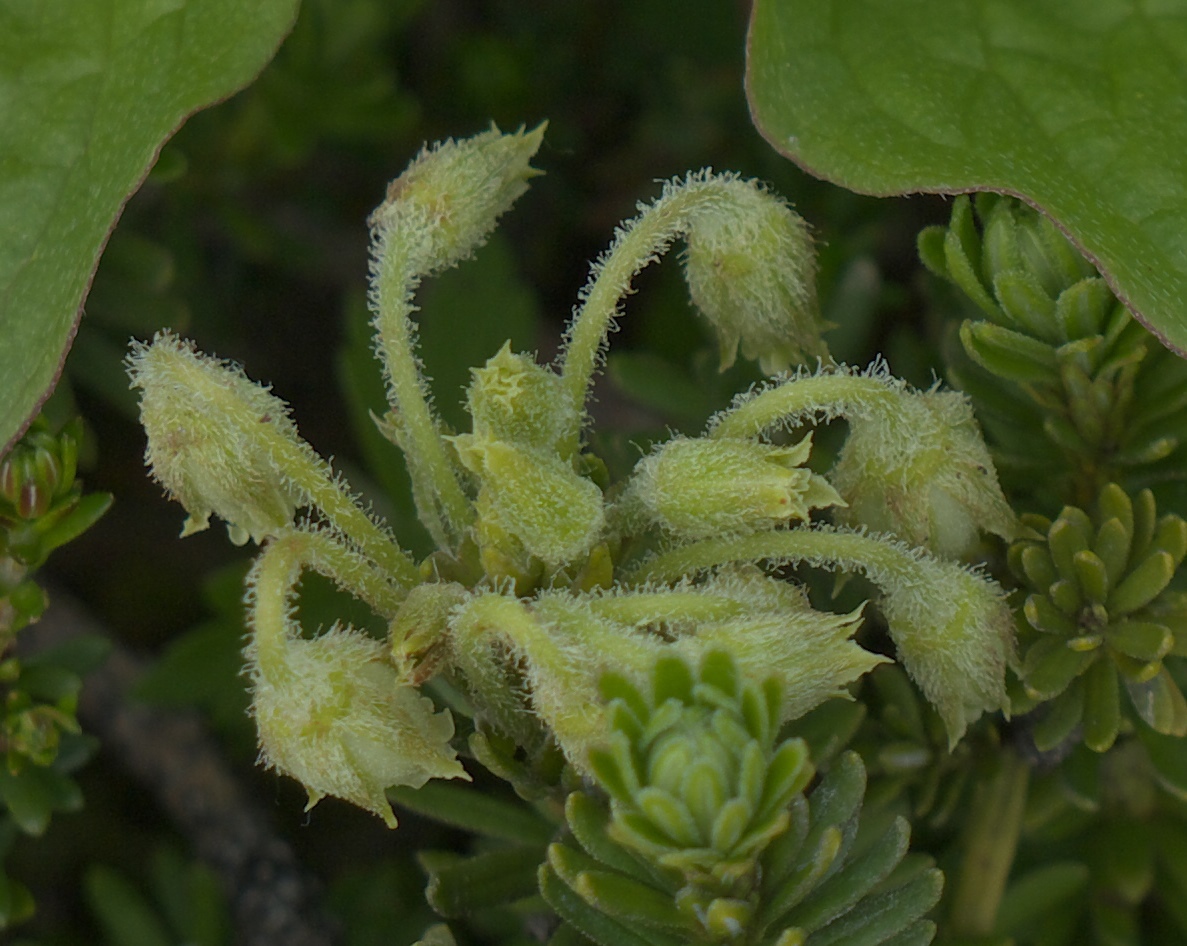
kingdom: Plantae
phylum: Tracheophyta
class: Magnoliopsida
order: Ericales
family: Ericaceae
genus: Phyllodoce
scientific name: Phyllodoce glanduliflora
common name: Cream mountain heather
